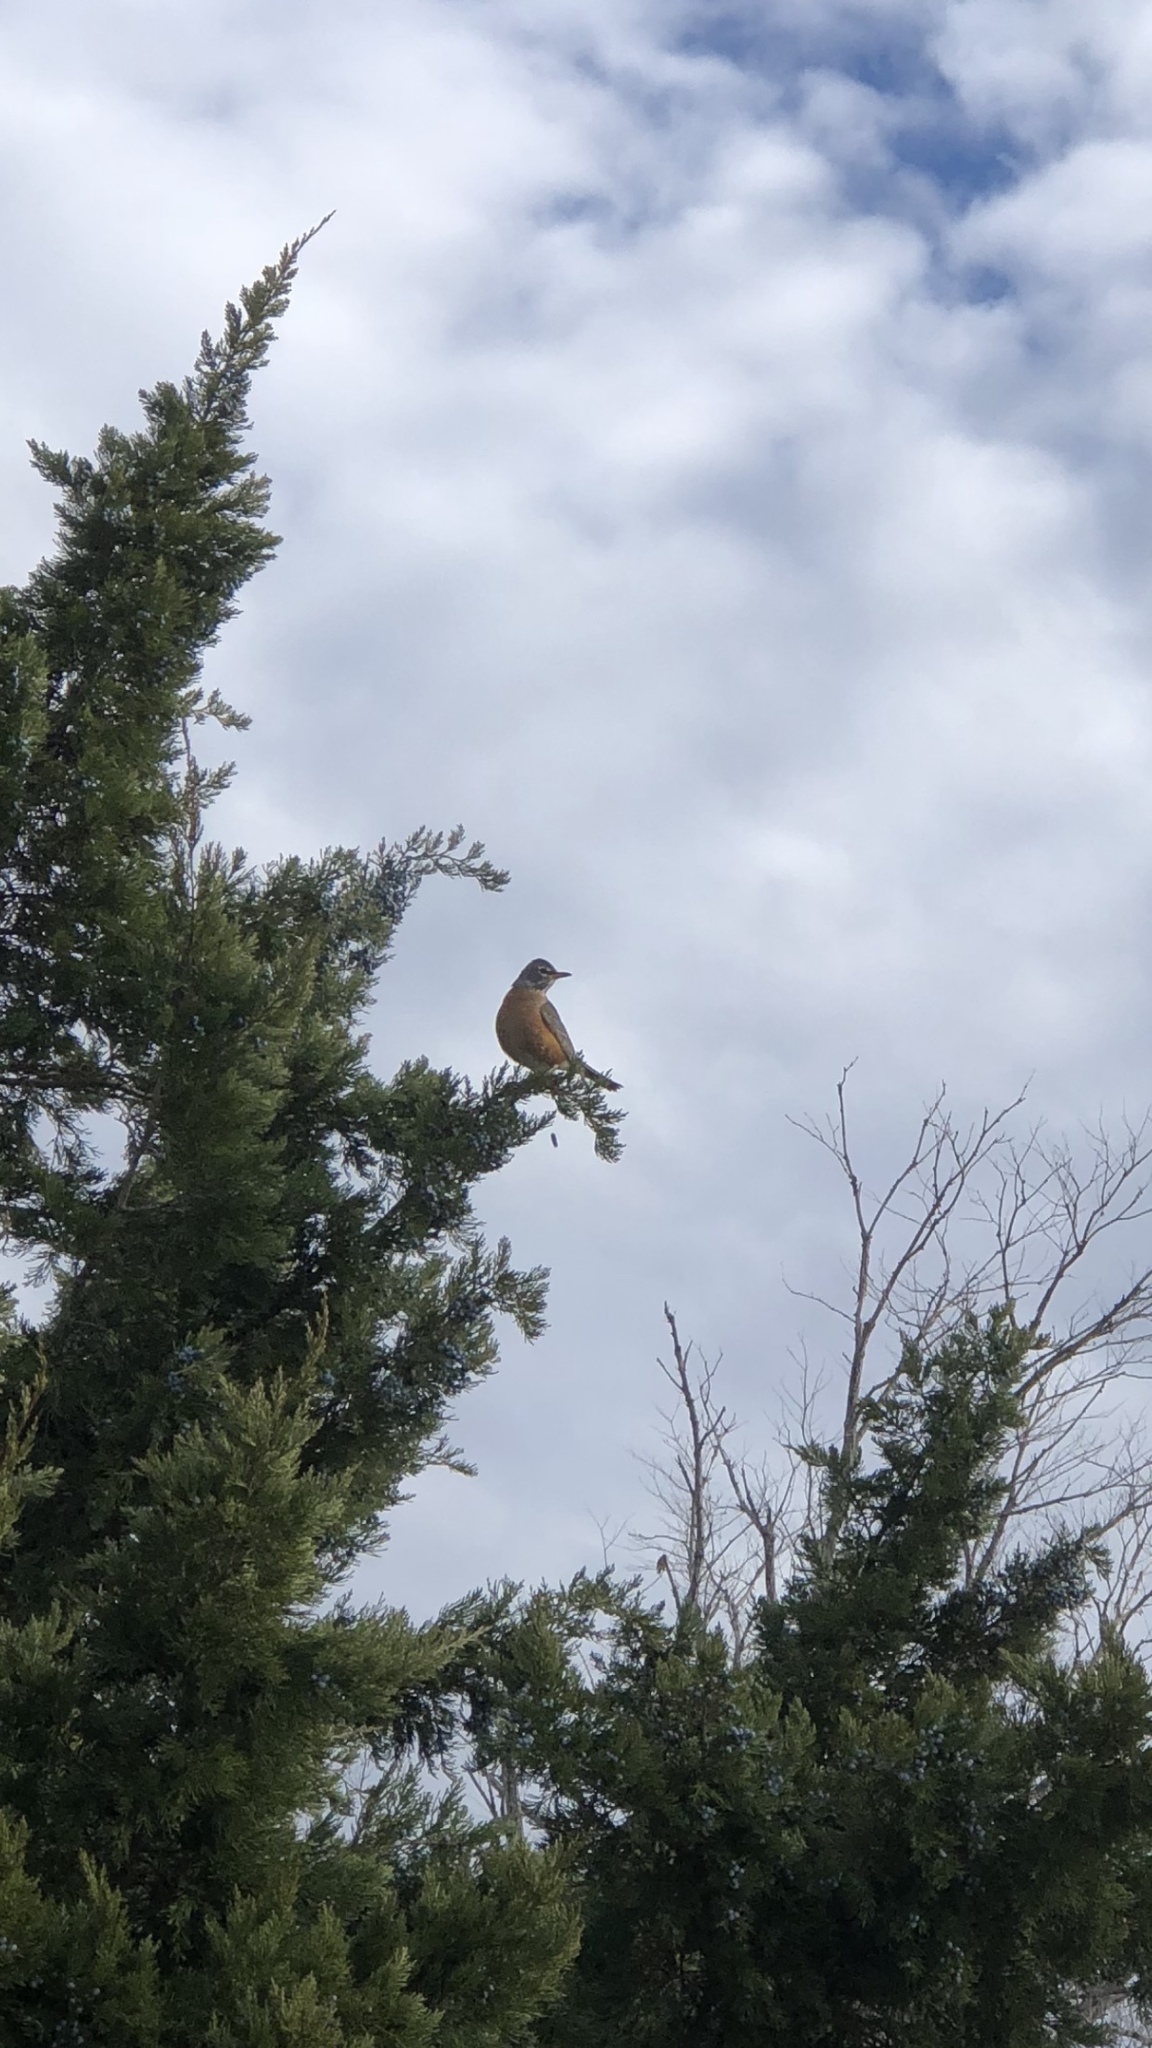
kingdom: Animalia
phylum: Chordata
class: Aves
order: Passeriformes
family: Turdidae
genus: Turdus
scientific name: Turdus migratorius
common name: American robin
